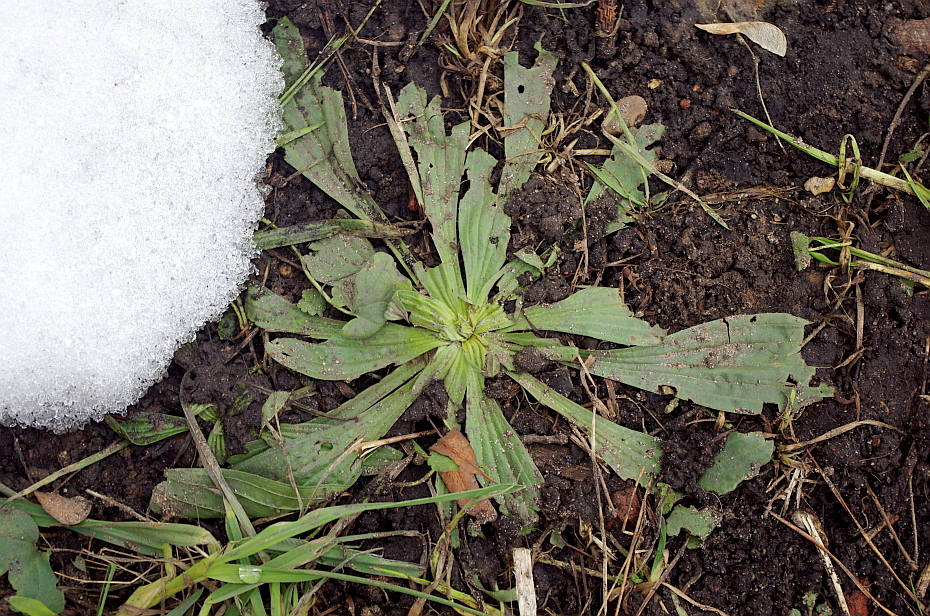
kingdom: Plantae
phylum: Tracheophyta
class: Magnoliopsida
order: Lamiales
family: Plantaginaceae
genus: Plantago
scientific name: Plantago lanceolata
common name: Ribwort plantain
